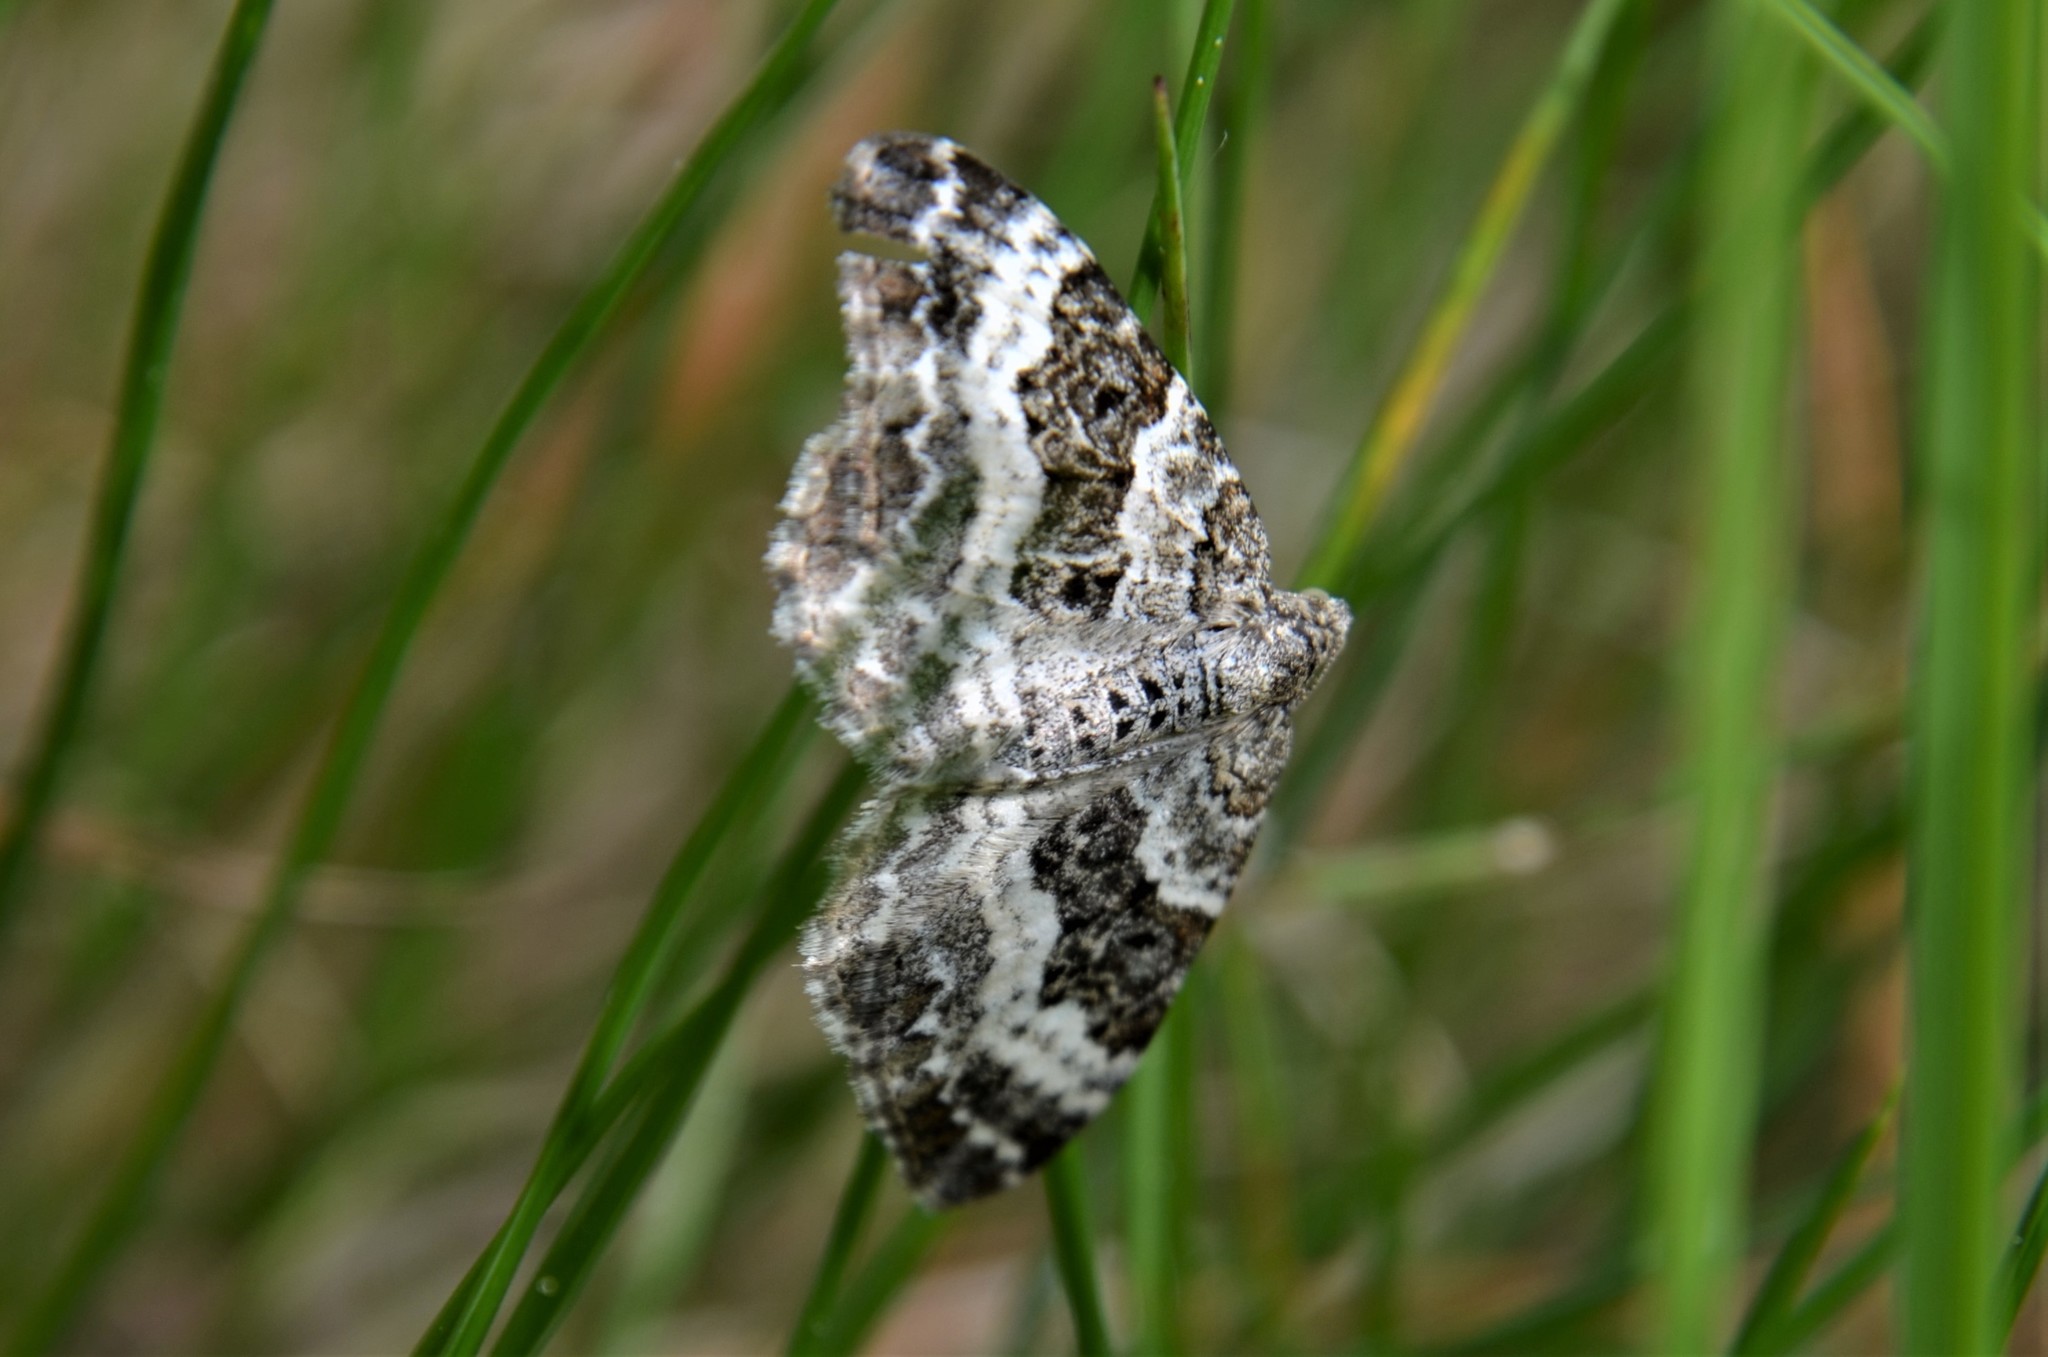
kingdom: Animalia
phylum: Arthropoda
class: Insecta
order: Lepidoptera
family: Geometridae
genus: Epirrhoe
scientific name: Epirrhoe alternata
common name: Common carpet
